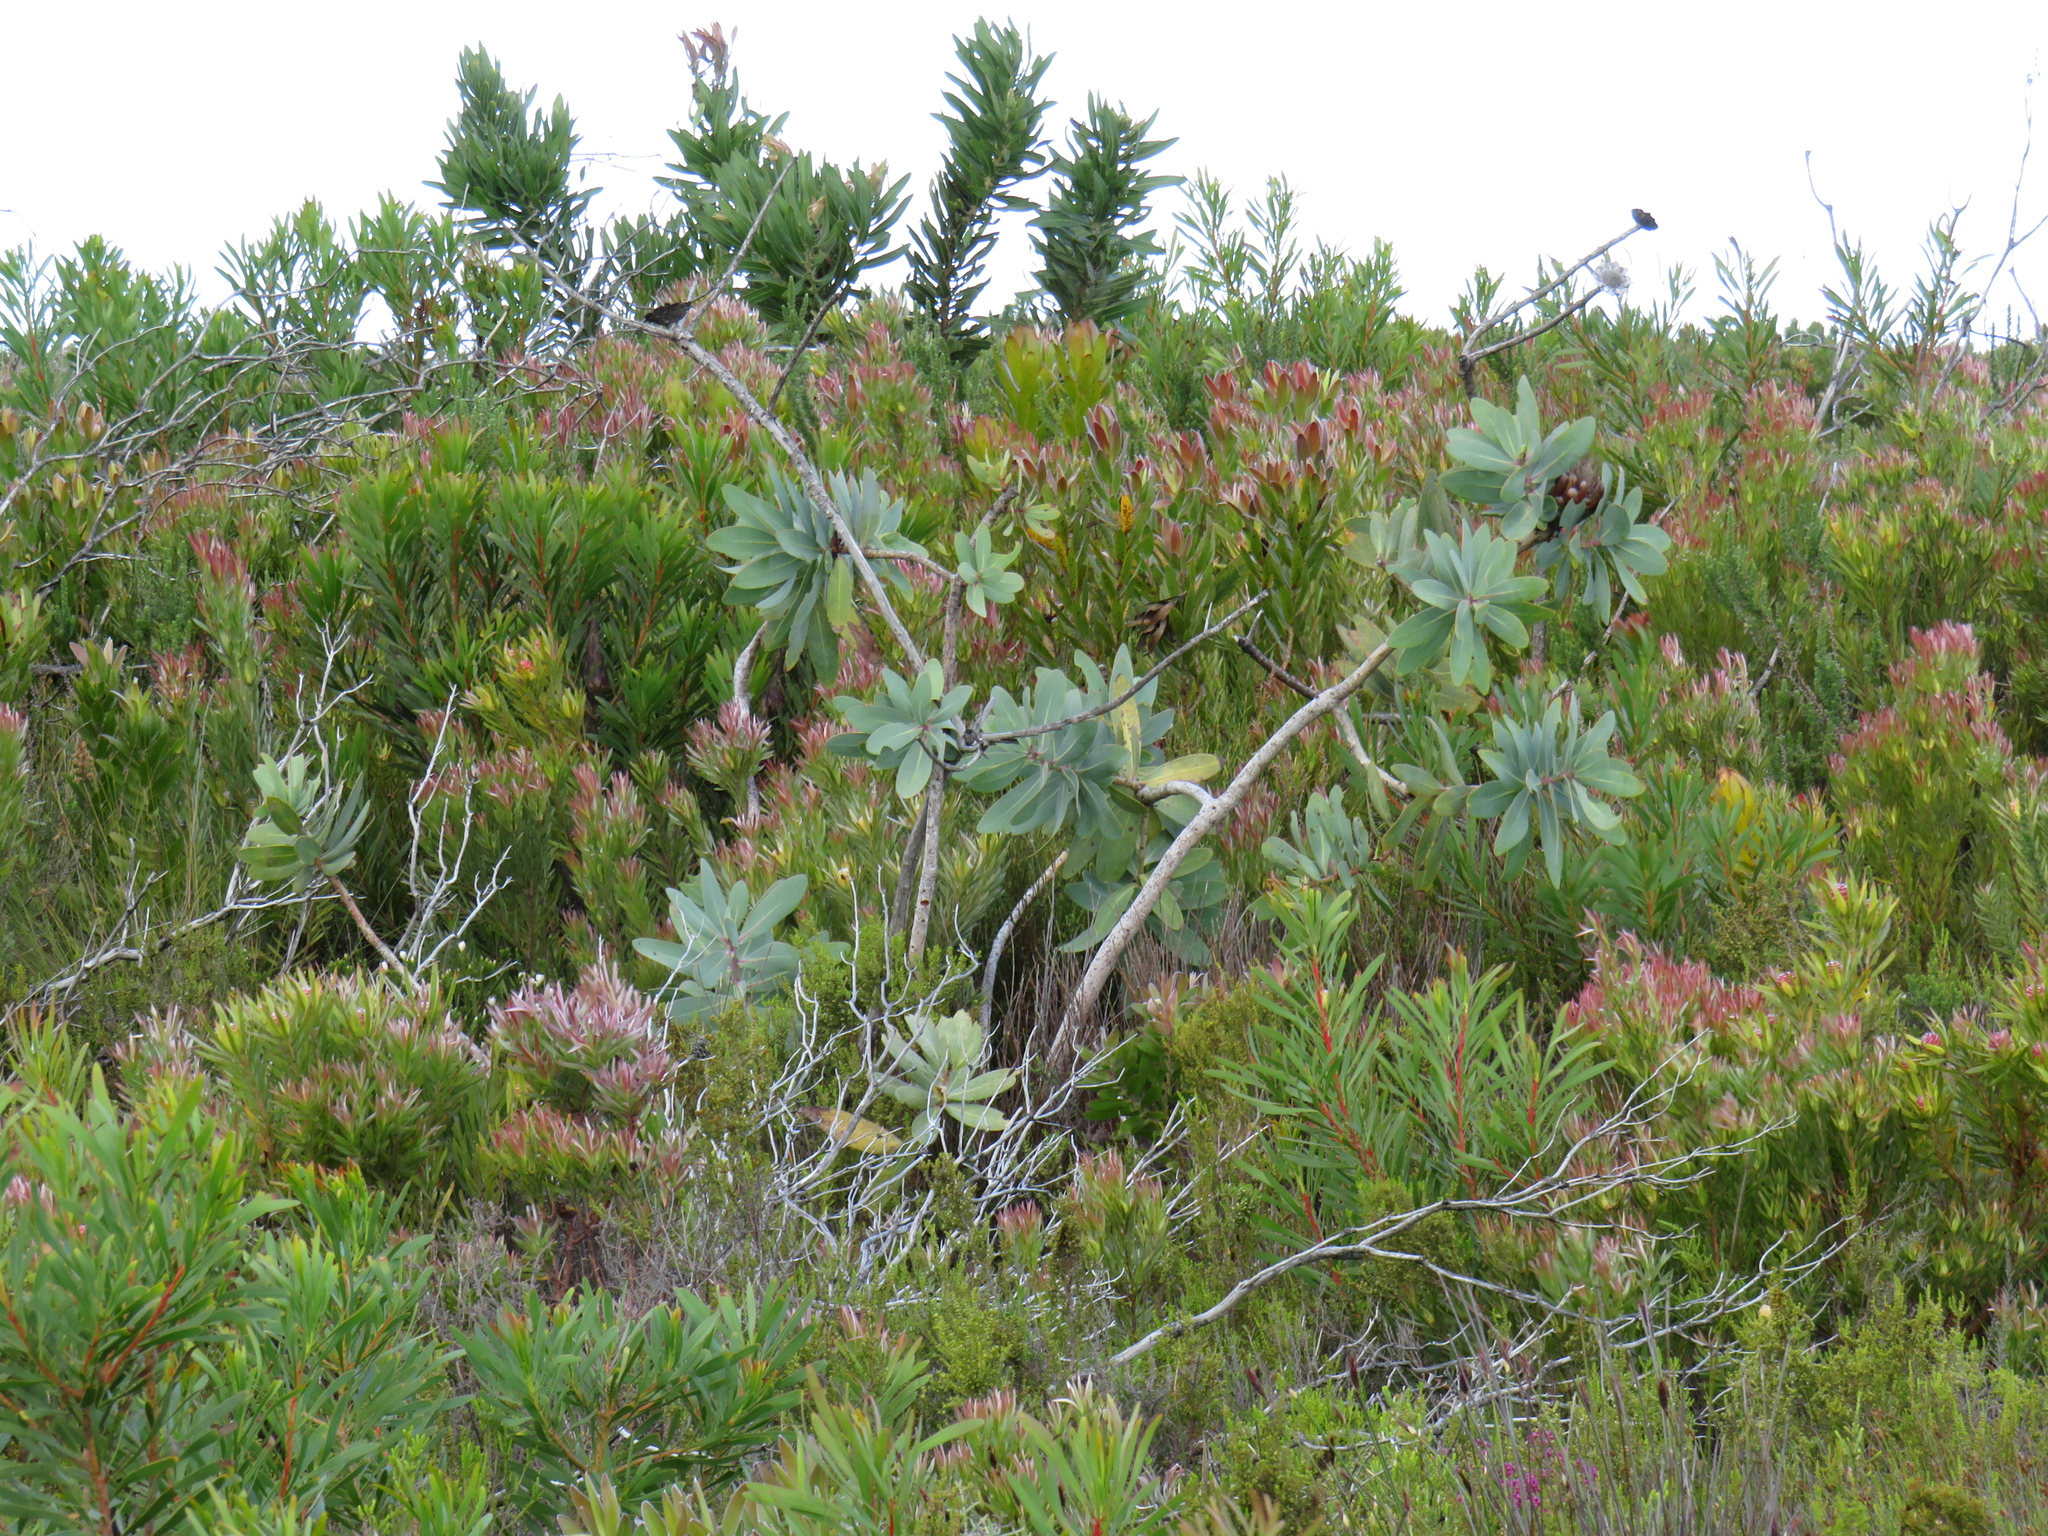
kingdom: Plantae
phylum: Tracheophyta
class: Magnoliopsida
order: Proteales
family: Proteaceae
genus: Protea
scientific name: Protea nitida
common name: Tree protea
